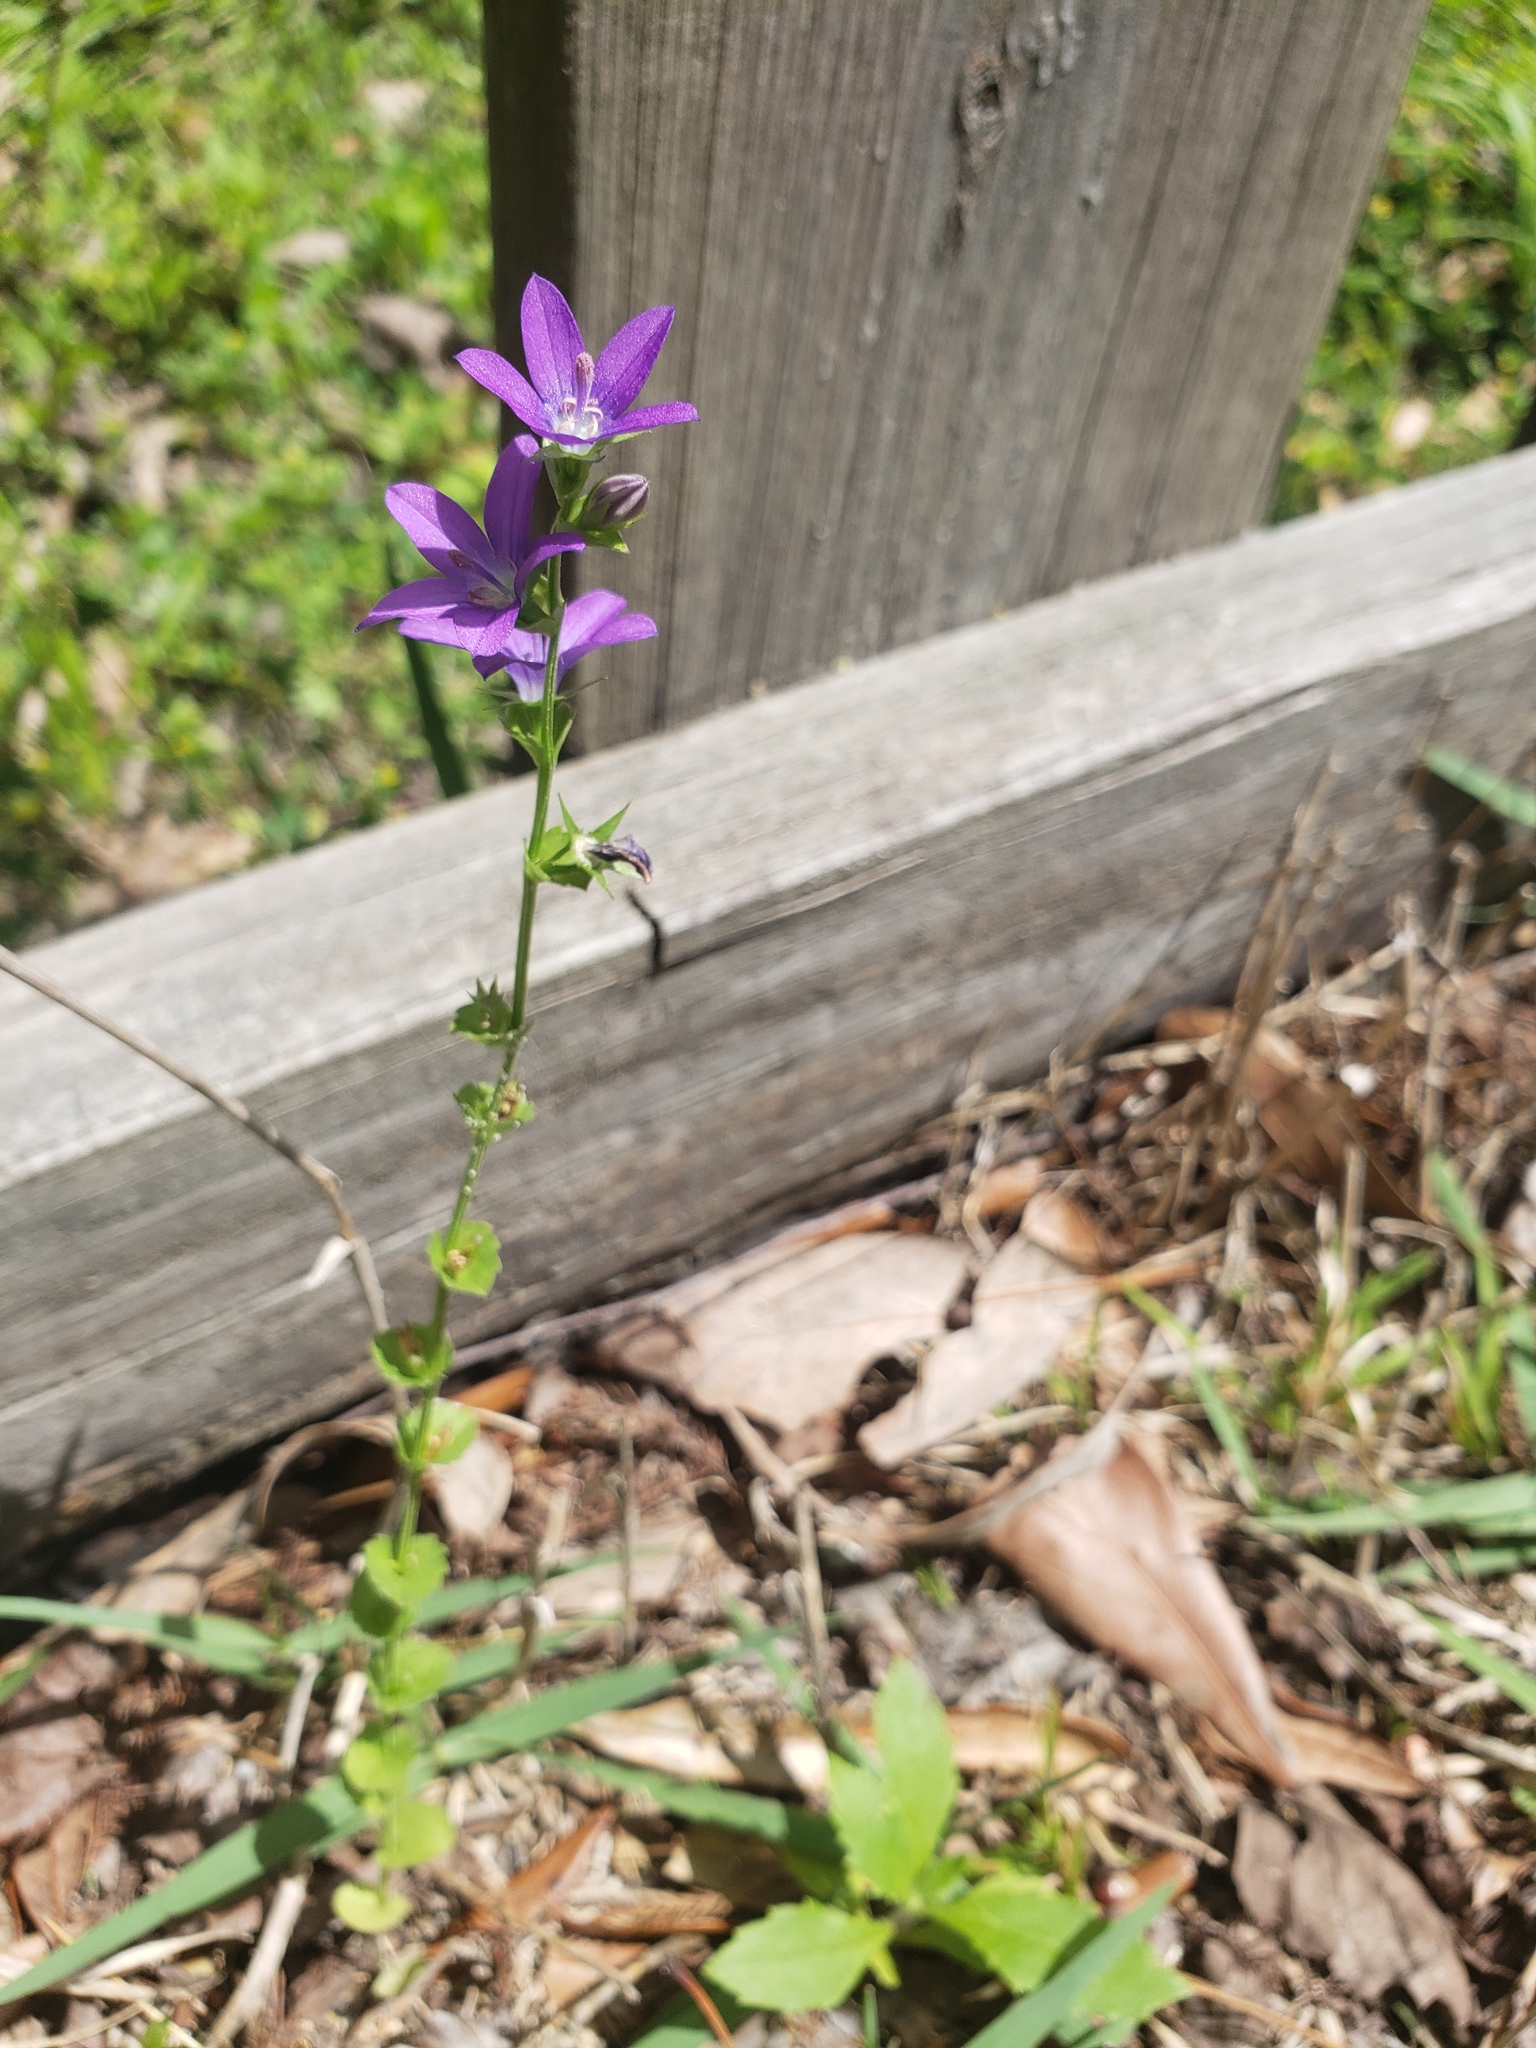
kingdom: Plantae
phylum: Tracheophyta
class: Magnoliopsida
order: Asterales
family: Campanulaceae
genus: Triodanis
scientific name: Triodanis perfoliata
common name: Clasping venus' looking-glass
